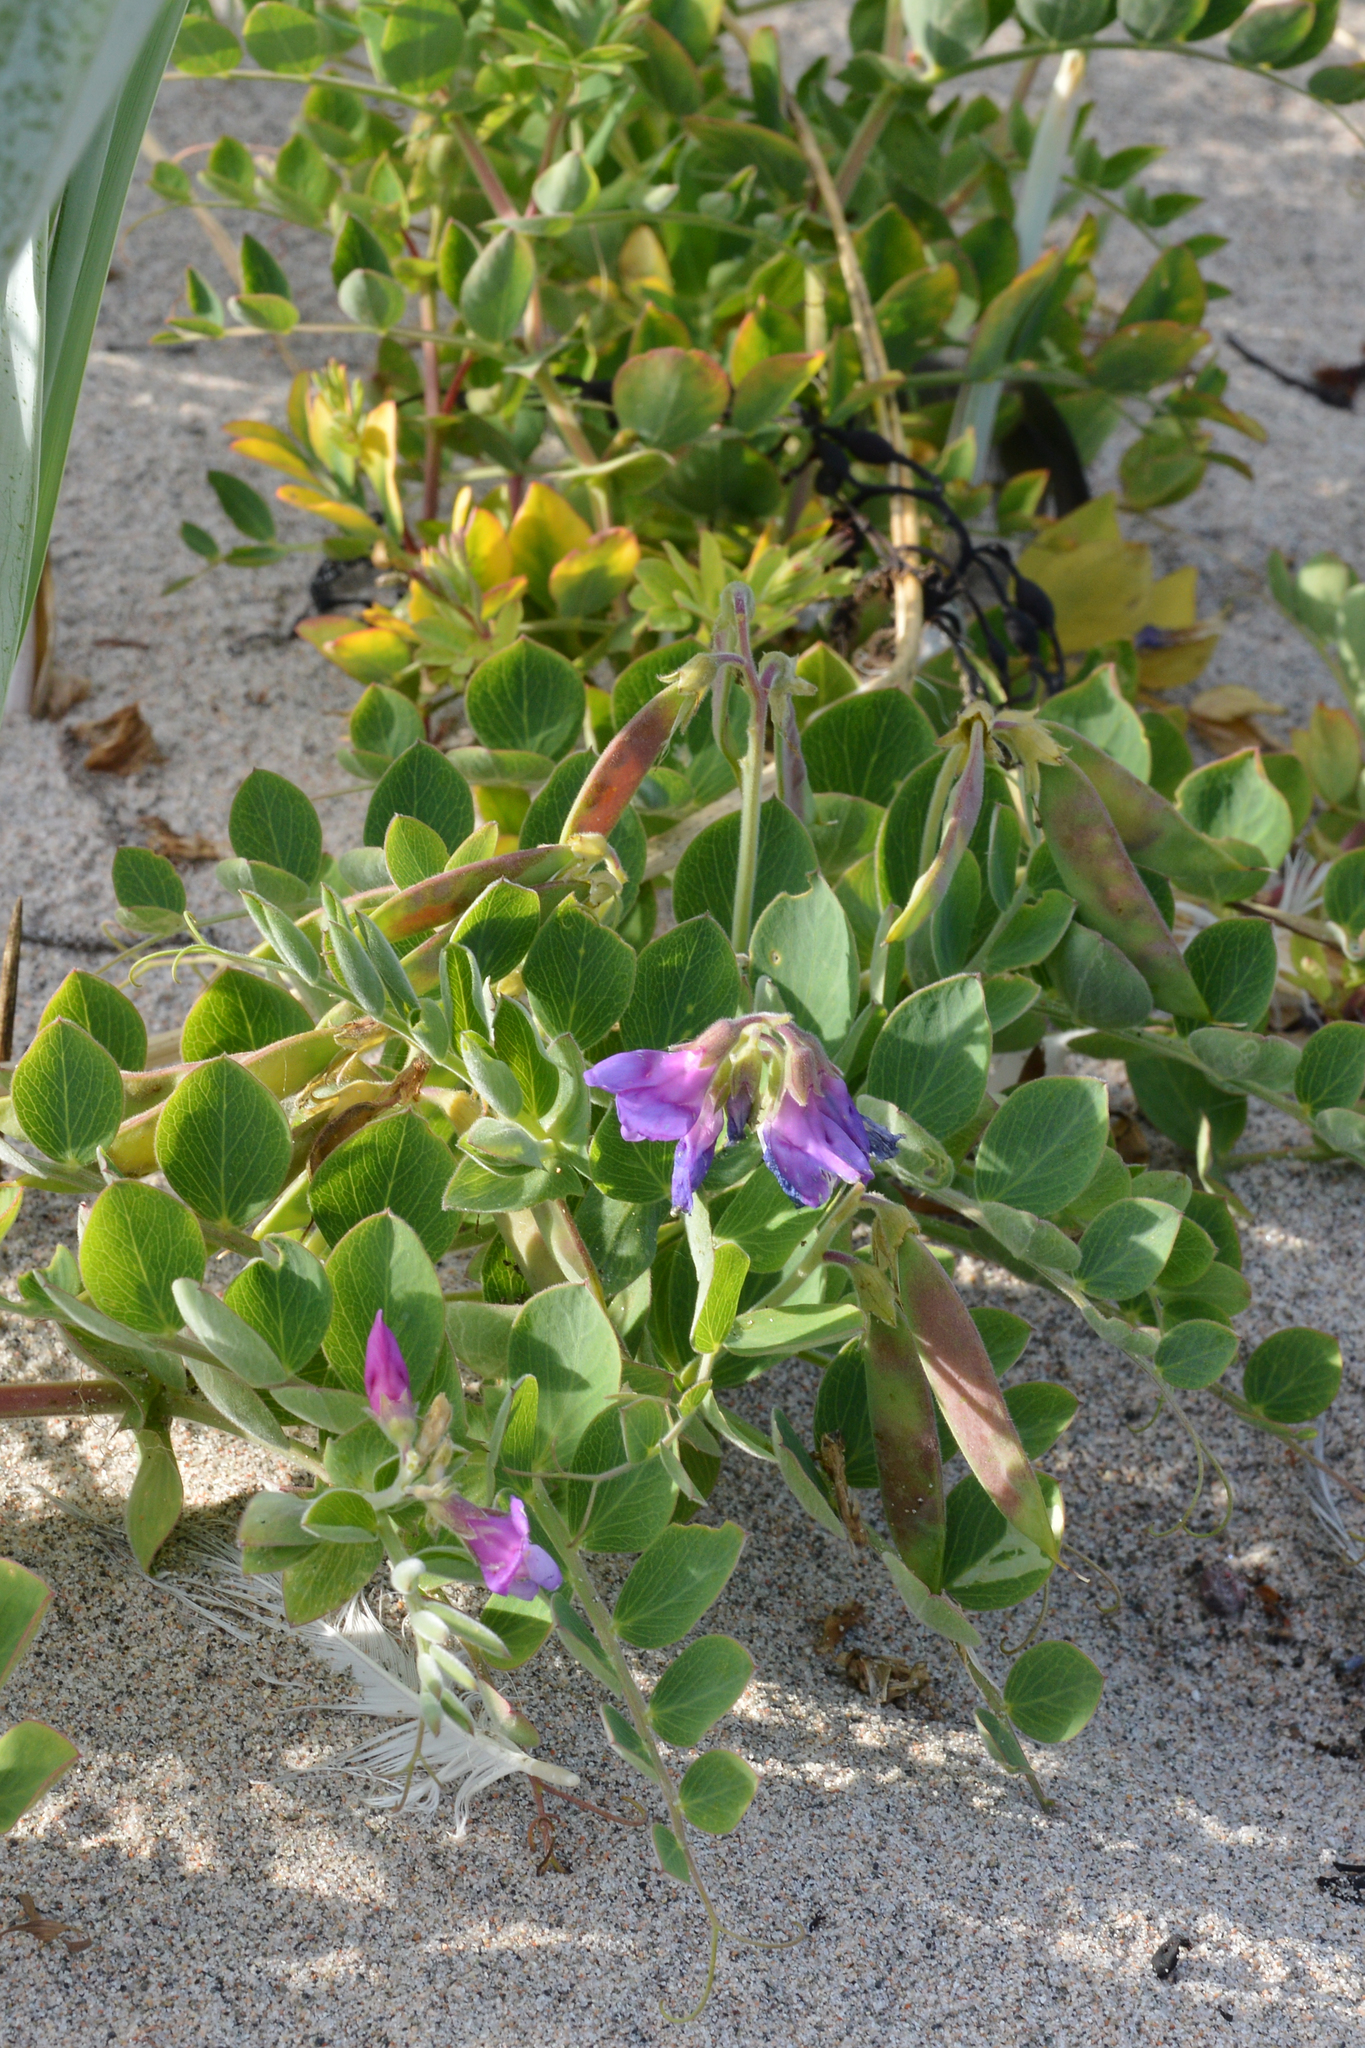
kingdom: Plantae
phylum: Tracheophyta
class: Magnoliopsida
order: Fabales
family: Fabaceae
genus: Lathyrus
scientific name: Lathyrus japonicus
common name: Sea pea
